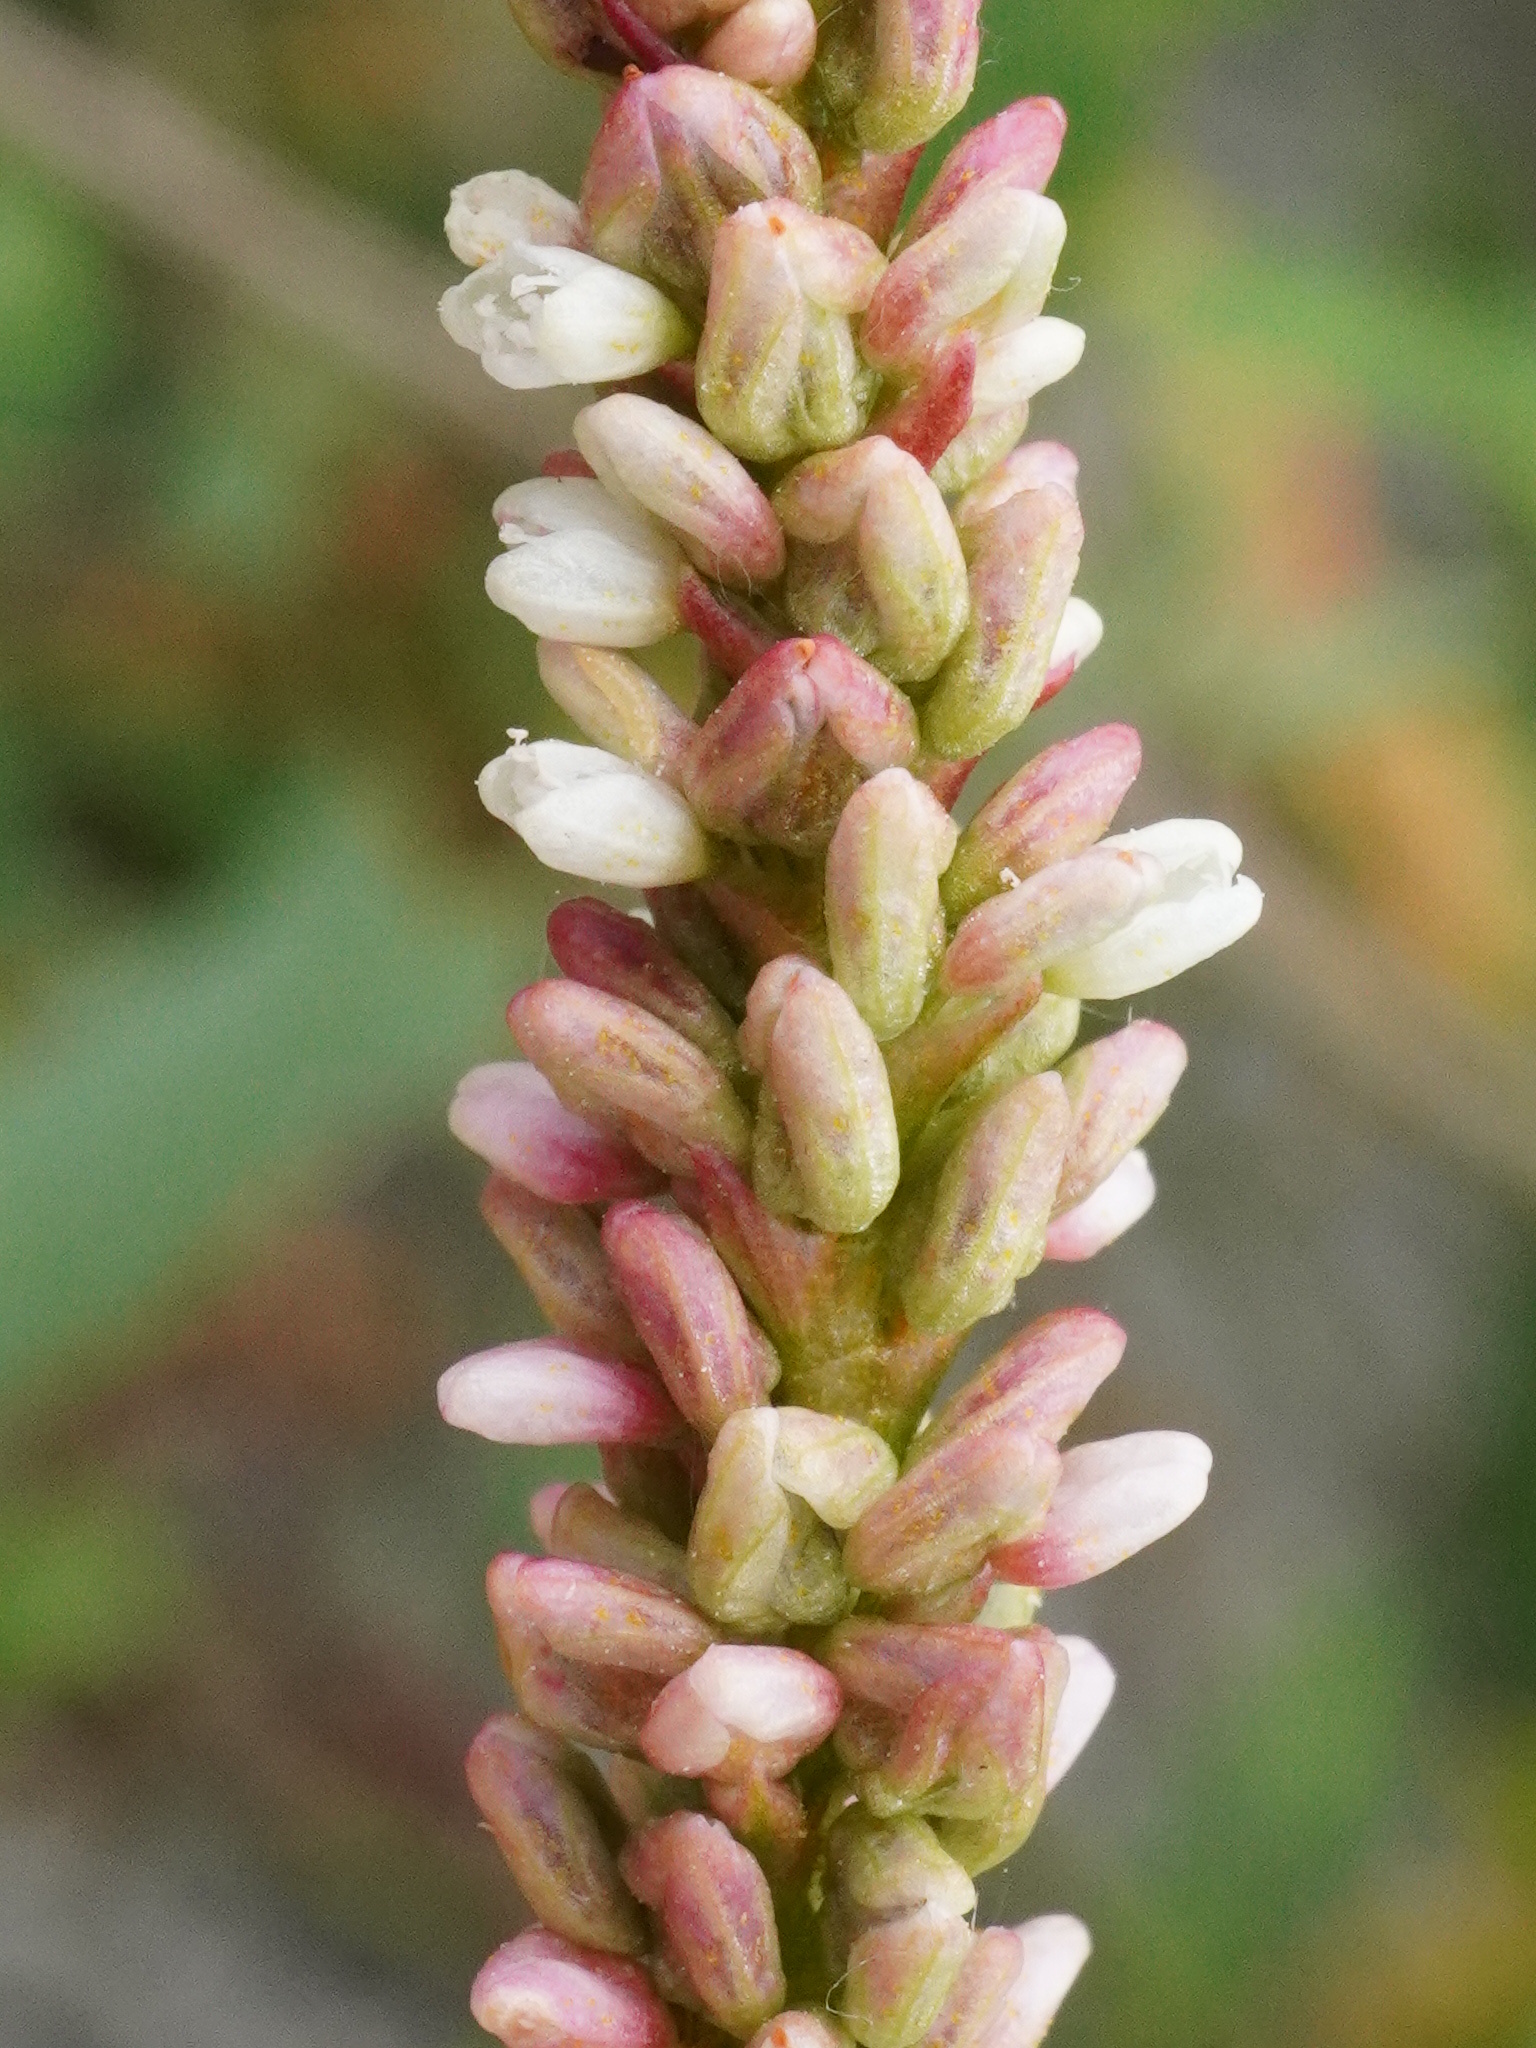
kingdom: Plantae
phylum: Tracheophyta
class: Magnoliopsida
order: Caryophyllales
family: Polygonaceae
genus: Persicaria
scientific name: Persicaria lapathifolia
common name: Curlytop knotweed
